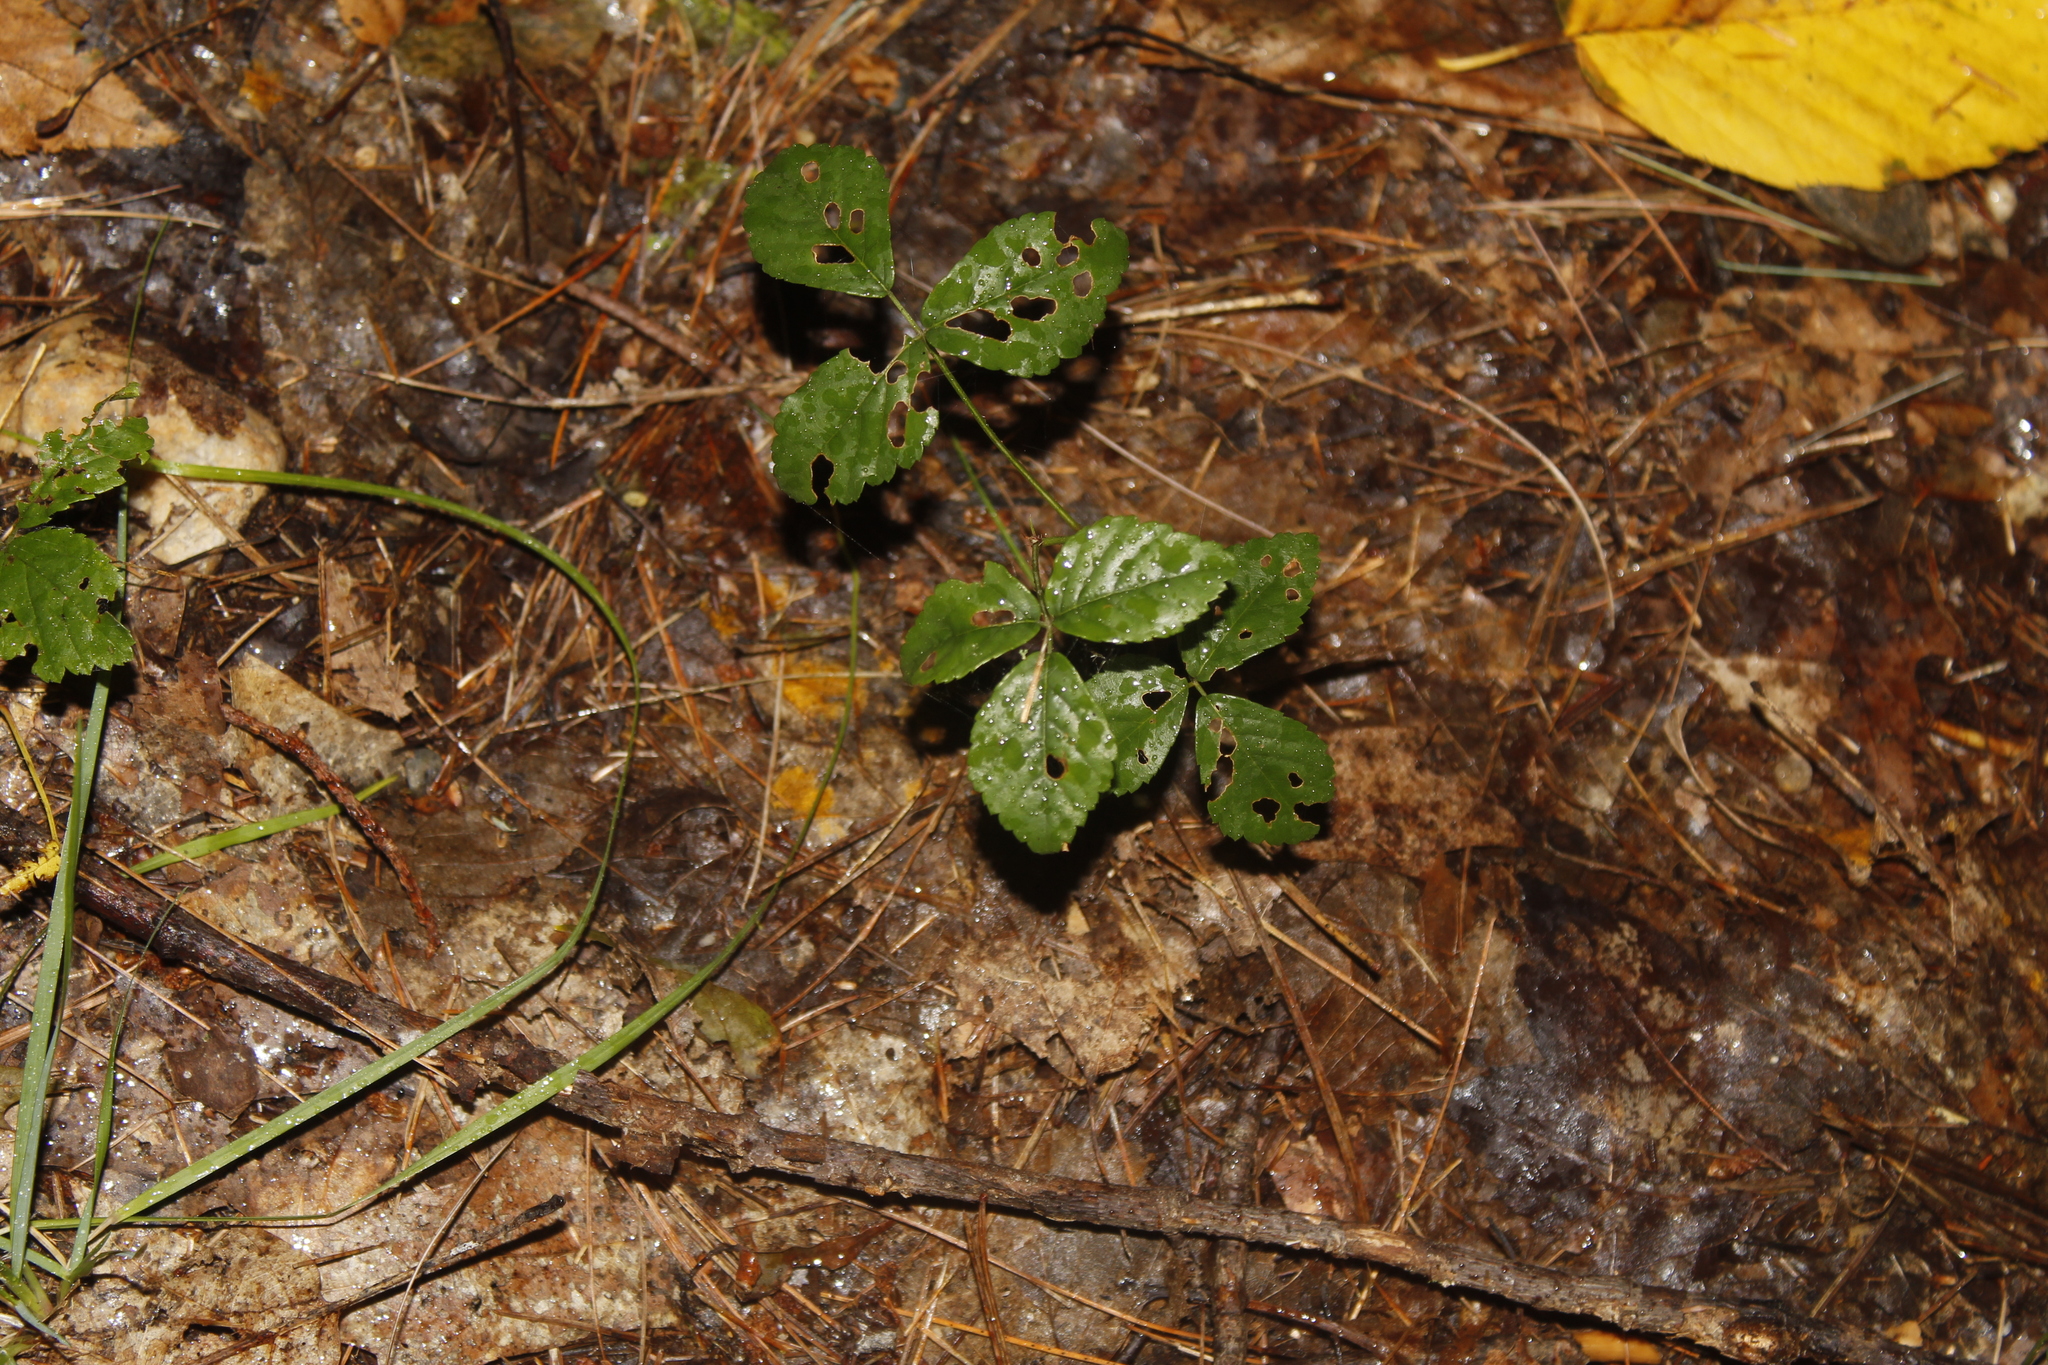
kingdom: Plantae
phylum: Tracheophyta
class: Magnoliopsida
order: Rosales
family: Rosaceae
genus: Rubus
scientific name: Rubus hispidus
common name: Running blackberry
